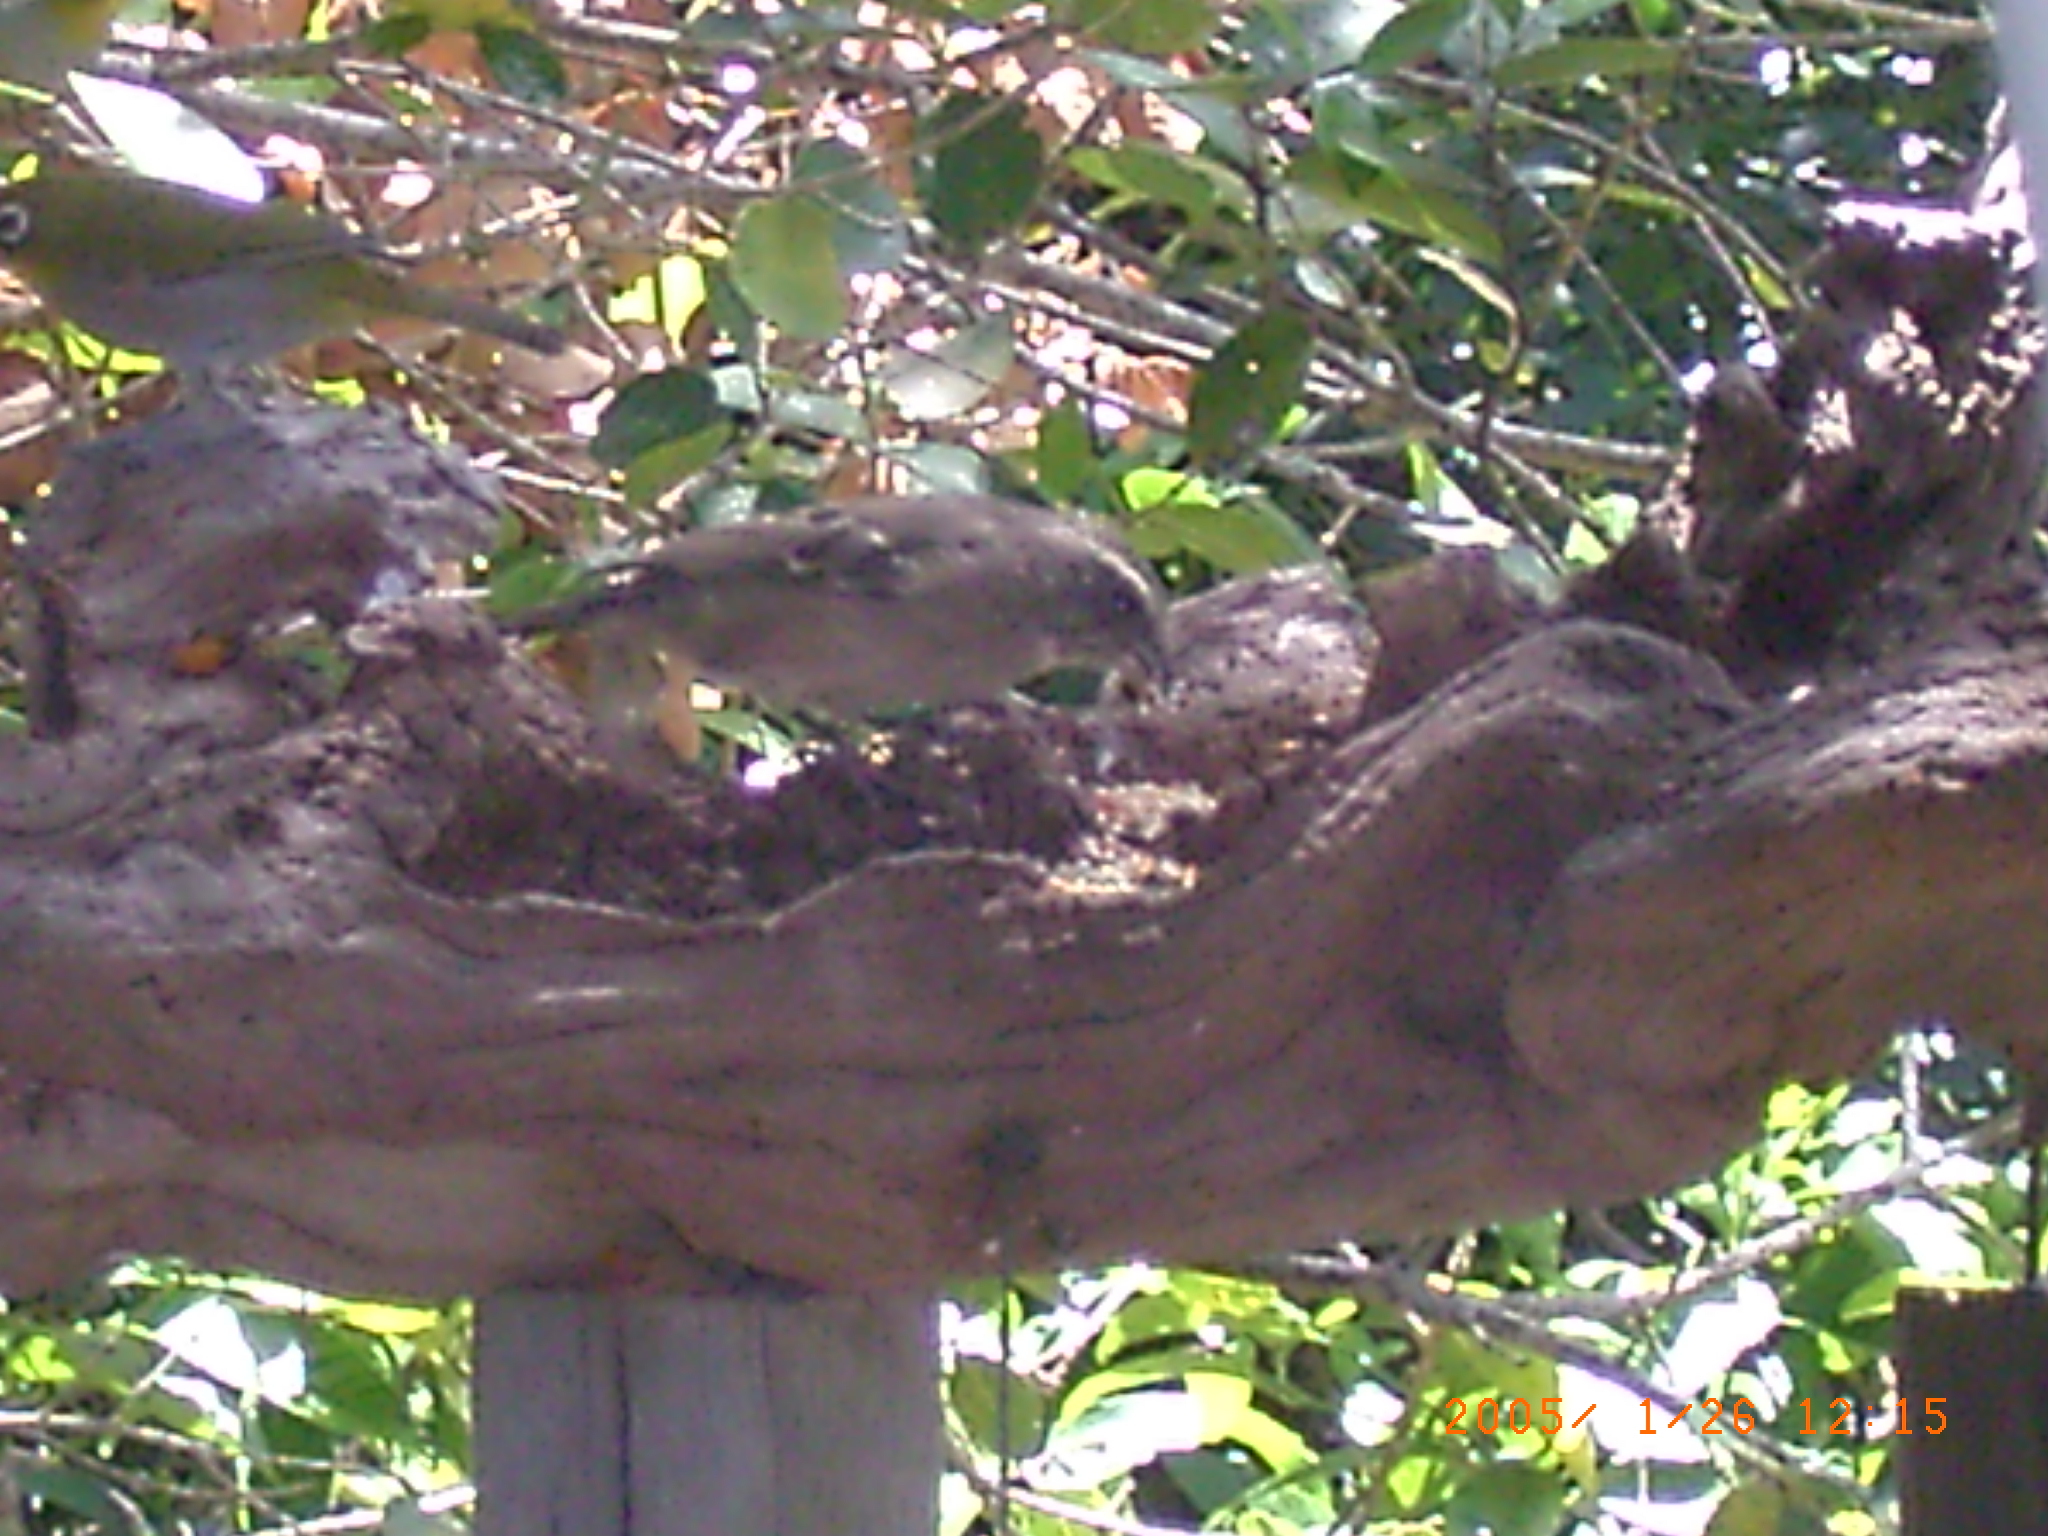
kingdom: Animalia
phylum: Chordata
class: Aves
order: Passeriformes
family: Fringillidae
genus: Crithagra
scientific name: Crithagra gularis
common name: Streaky-headed seedeater
